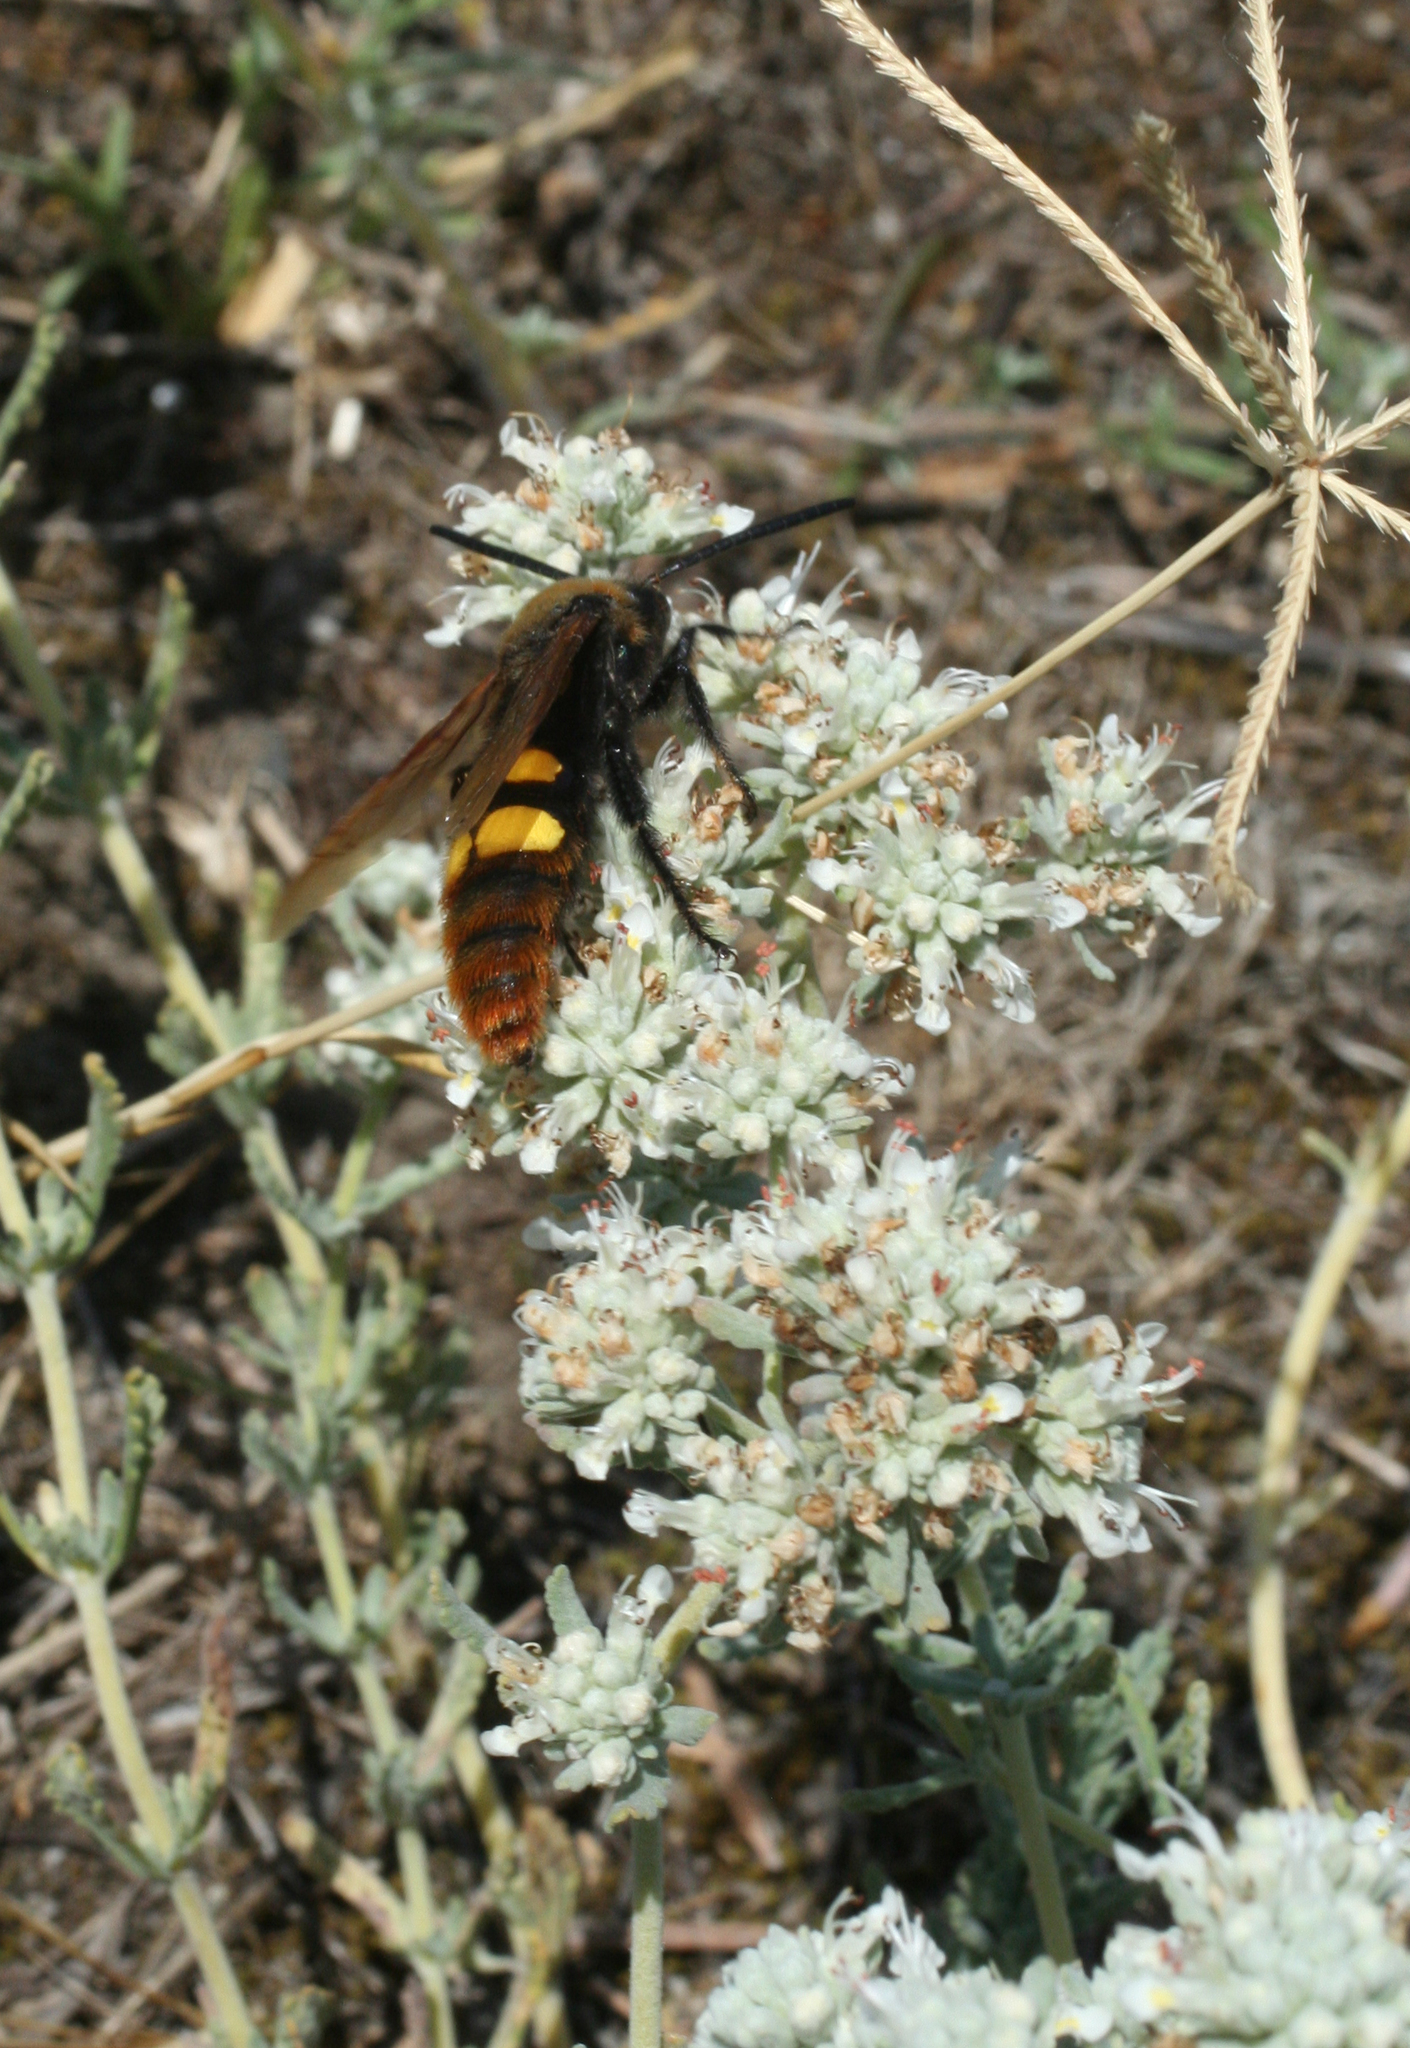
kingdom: Animalia
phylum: Arthropoda
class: Insecta
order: Hymenoptera
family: Scoliidae
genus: Megascolia
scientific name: Megascolia maculata
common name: Mammoth wasp
